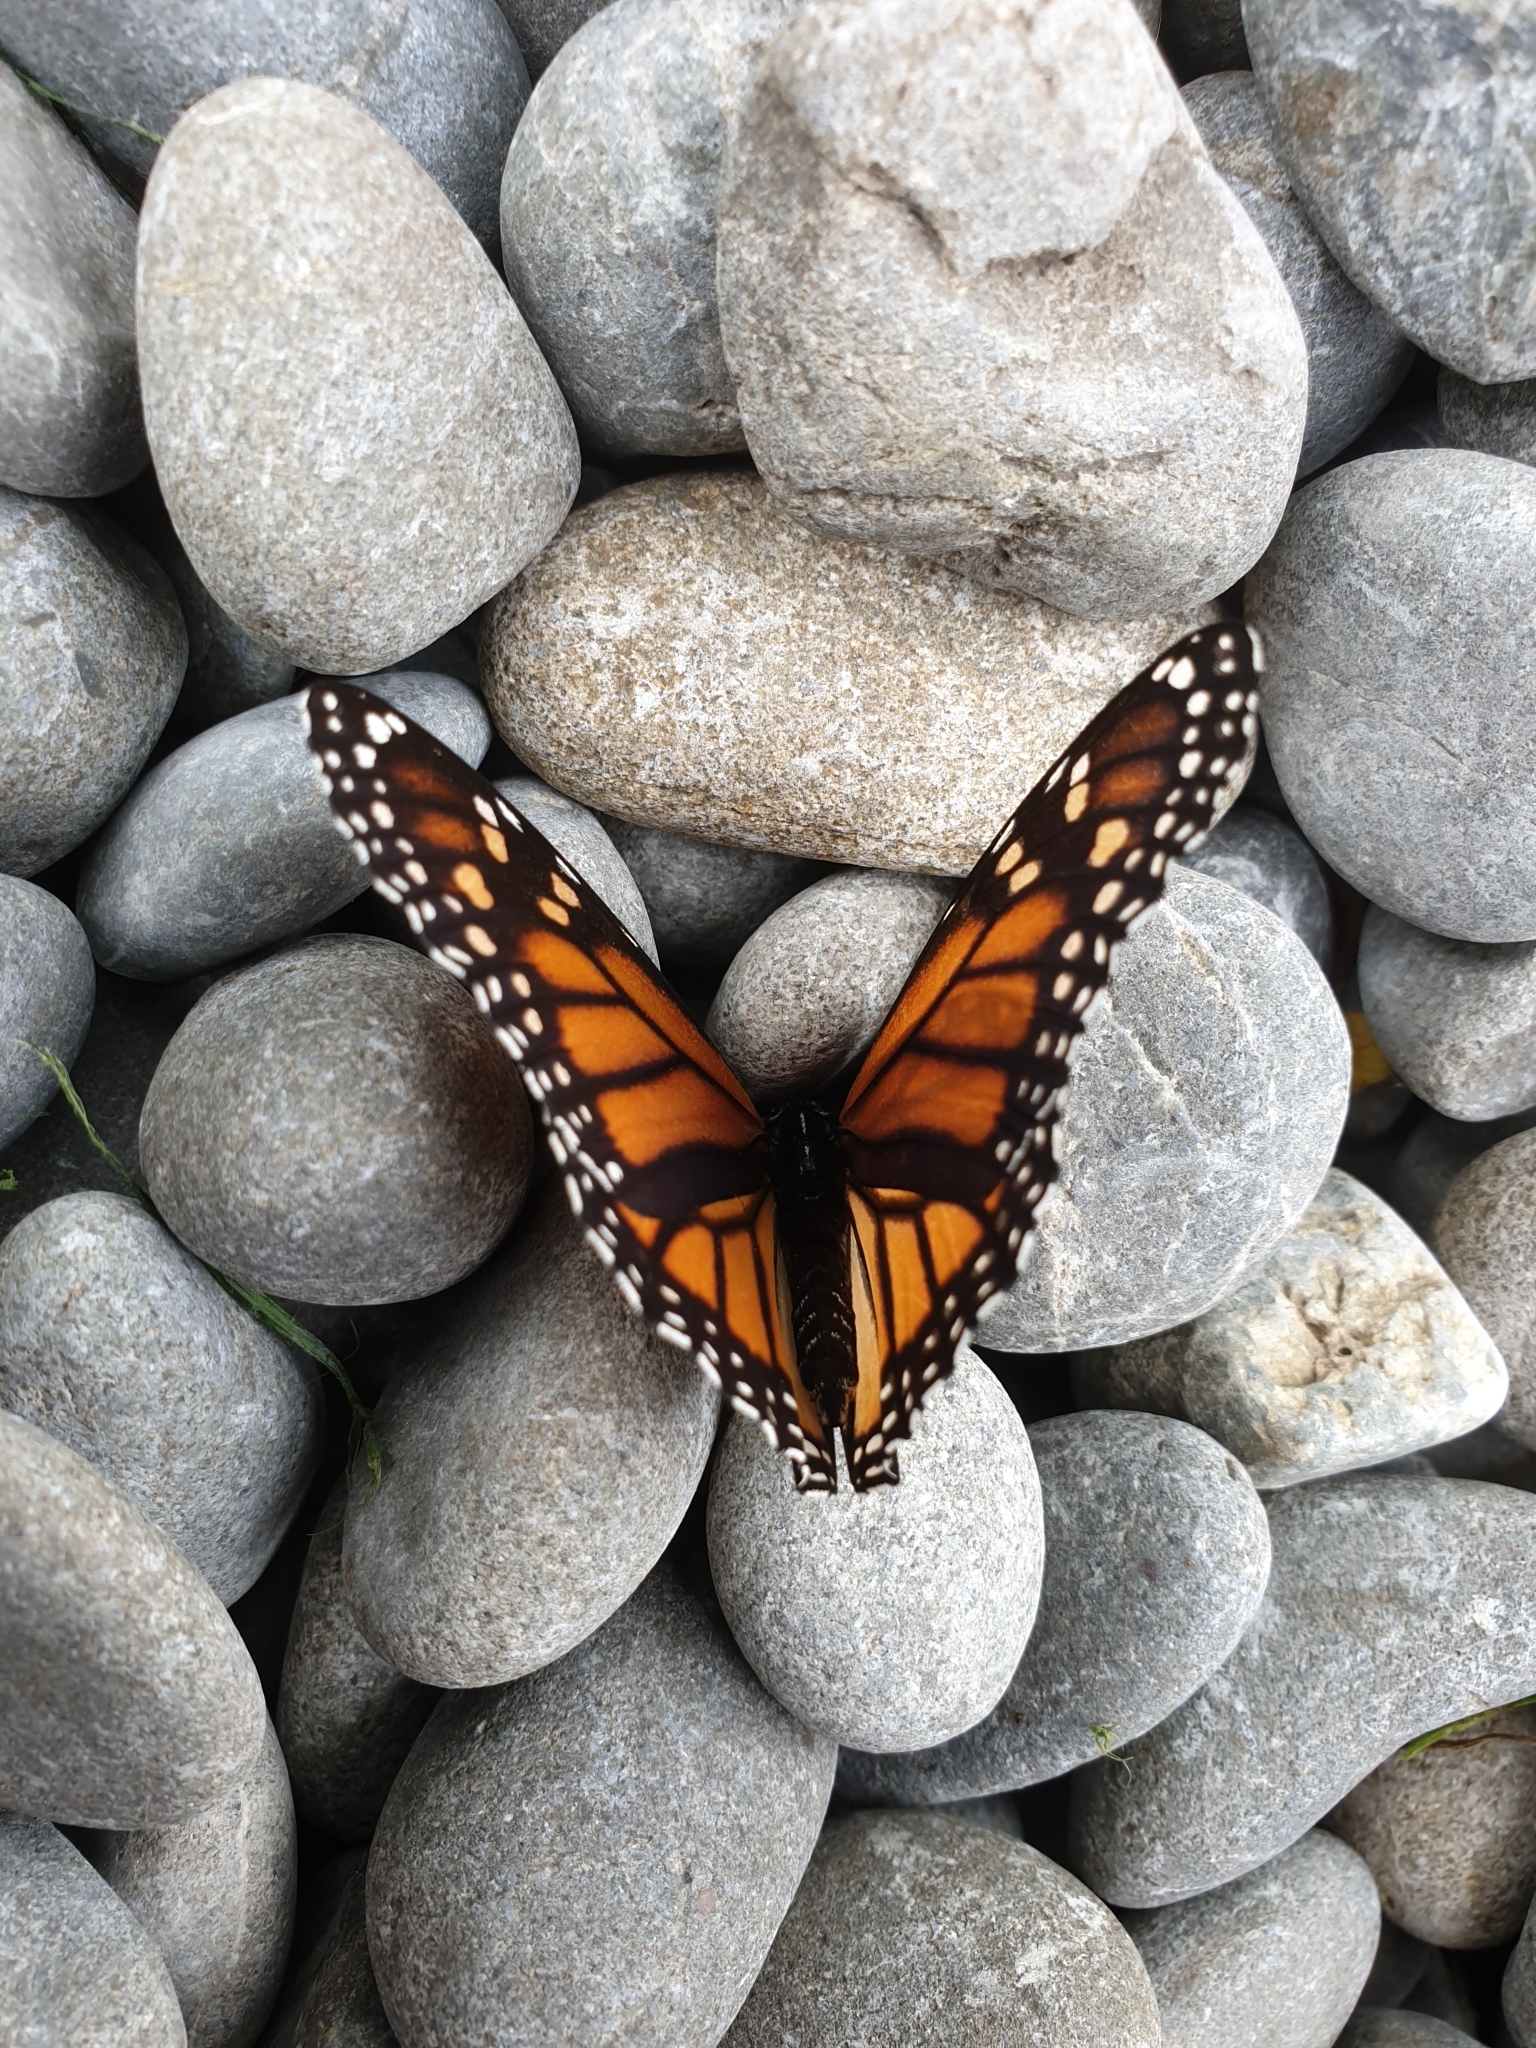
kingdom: Animalia
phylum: Arthropoda
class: Insecta
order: Lepidoptera
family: Nymphalidae
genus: Danaus
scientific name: Danaus plexippus
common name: Monarch
